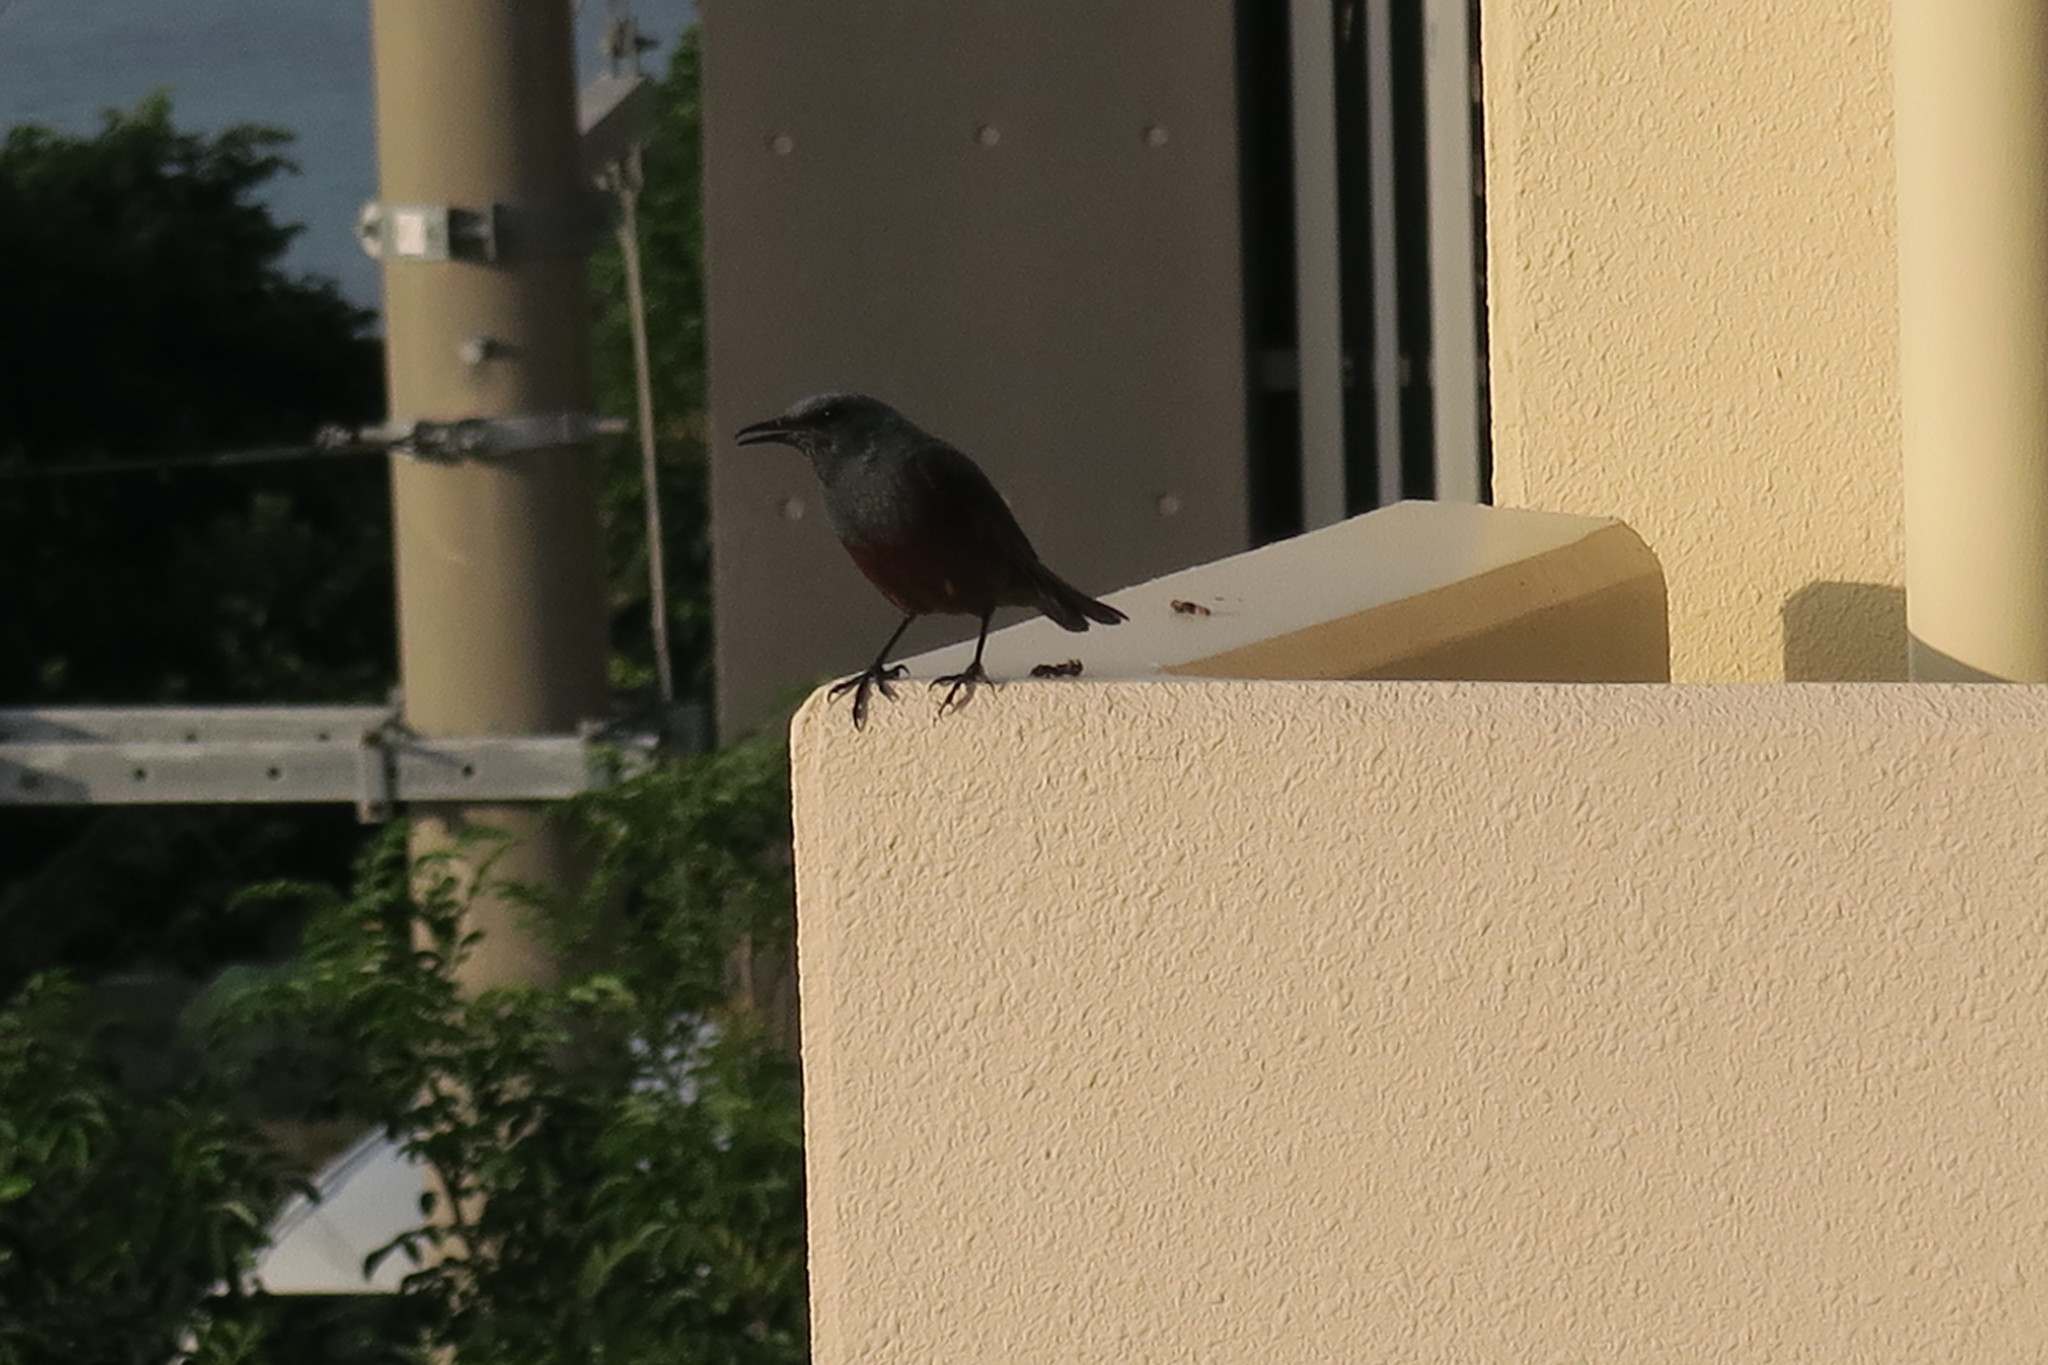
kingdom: Animalia
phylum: Chordata
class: Aves
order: Passeriformes
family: Muscicapidae
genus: Monticola
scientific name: Monticola solitarius
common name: Blue rock thrush
